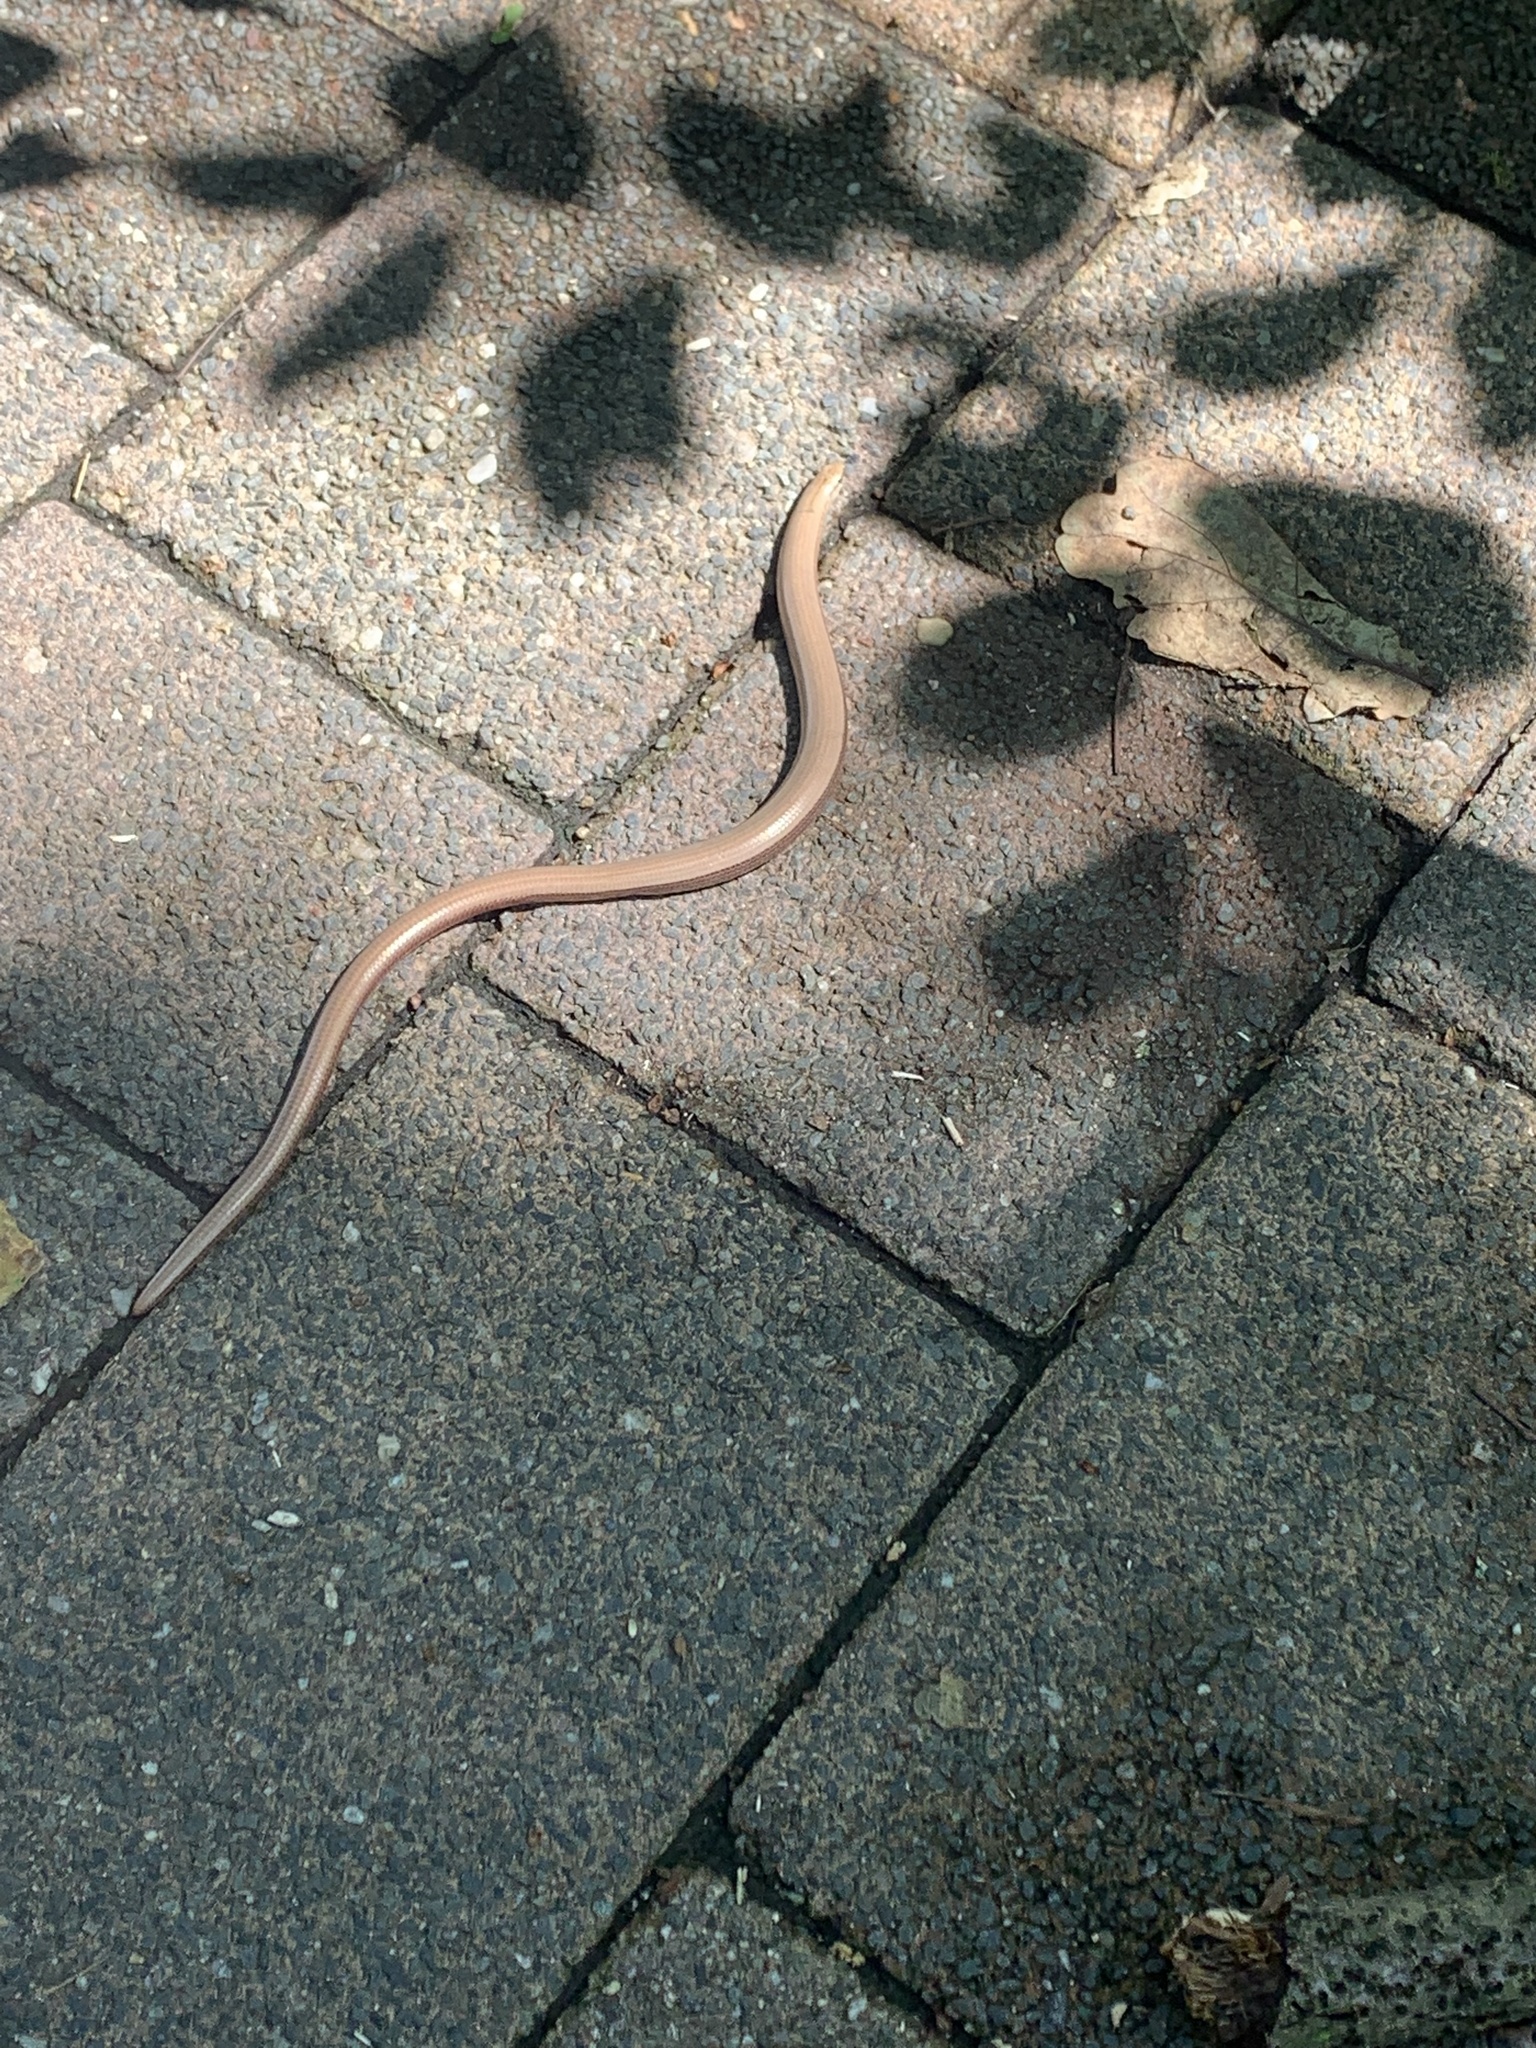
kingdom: Animalia
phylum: Chordata
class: Squamata
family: Anguidae
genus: Anguis
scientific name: Anguis fragilis
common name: Slow worm
